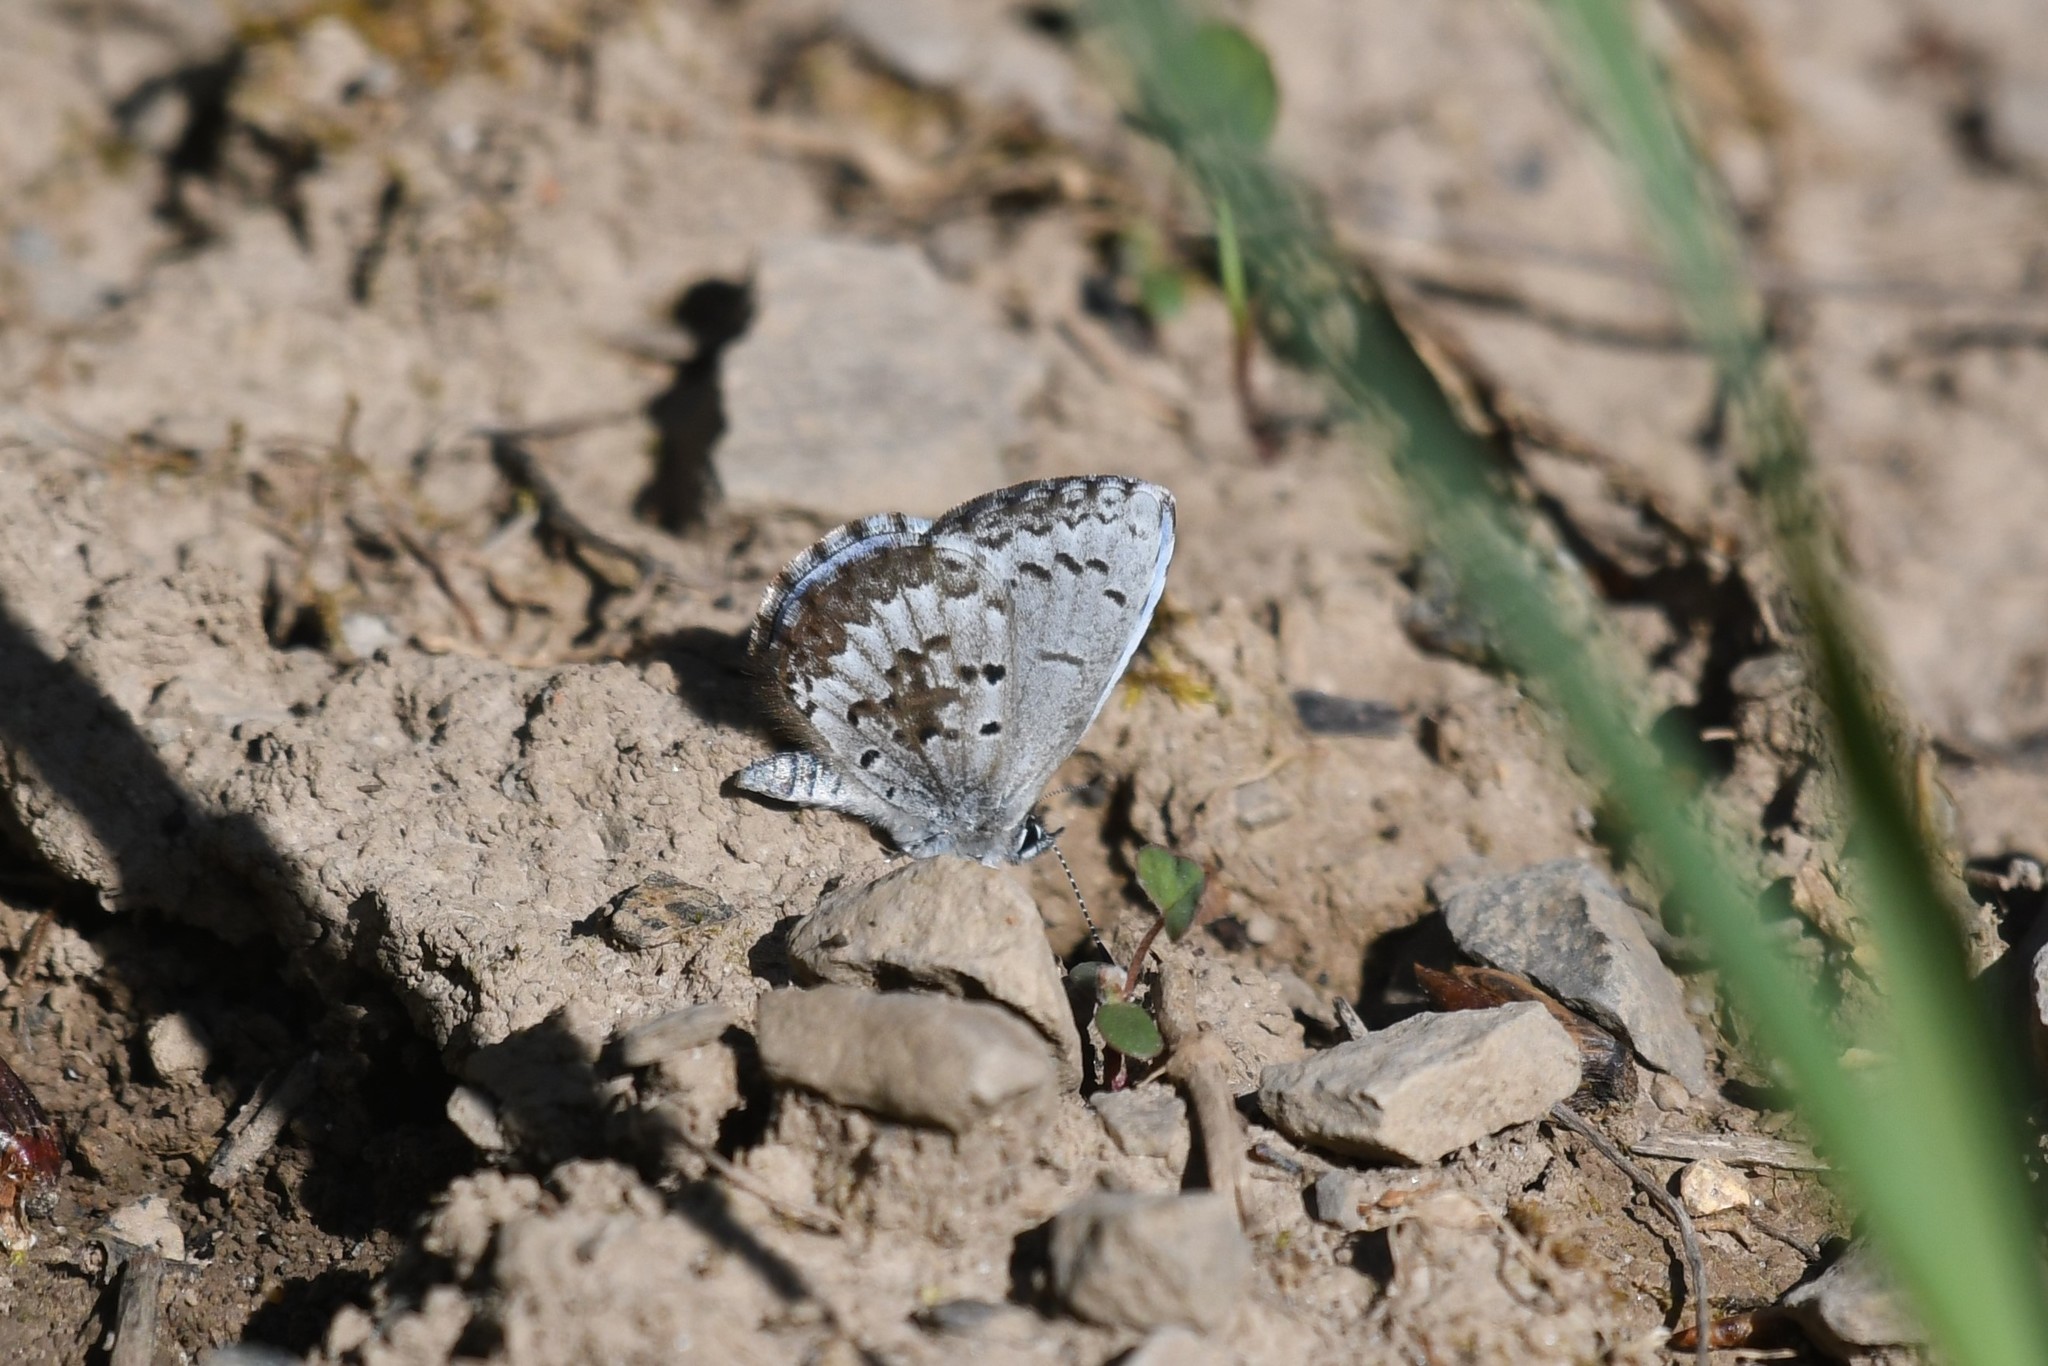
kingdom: Animalia
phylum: Arthropoda
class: Insecta
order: Lepidoptera
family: Lycaenidae
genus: Celastrina
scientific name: Celastrina lucia
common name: Lucia azure
